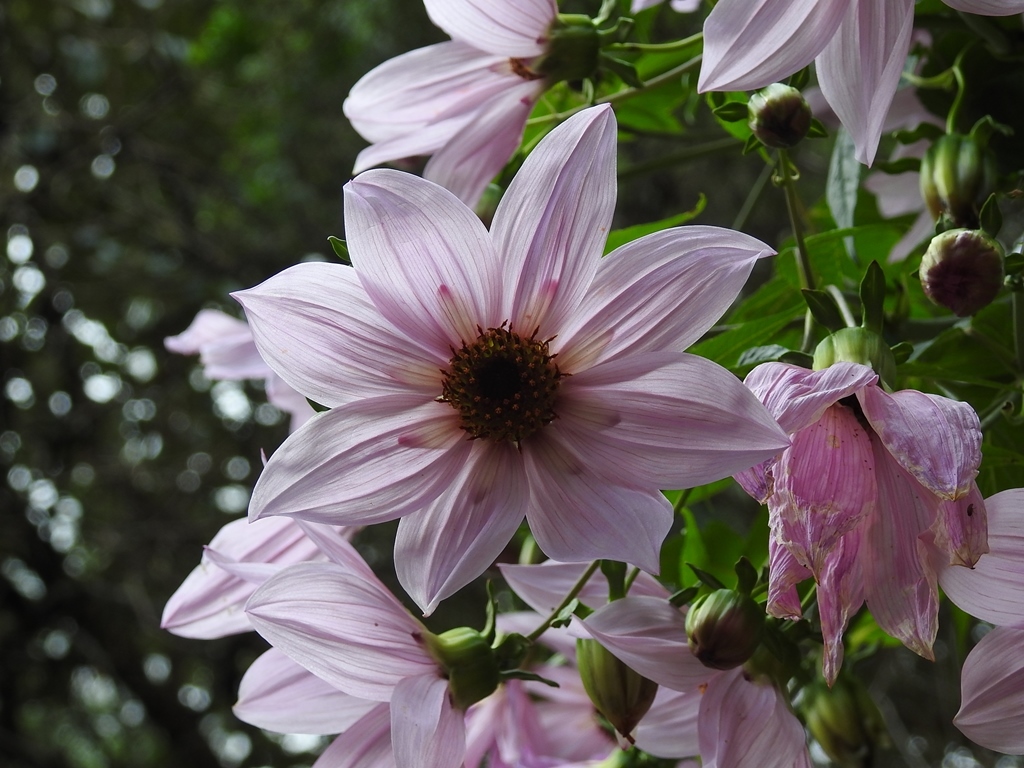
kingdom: Plantae
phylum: Tracheophyta
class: Magnoliopsida
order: Asterales
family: Asteraceae
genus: Dahlia
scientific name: Dahlia imperialis
